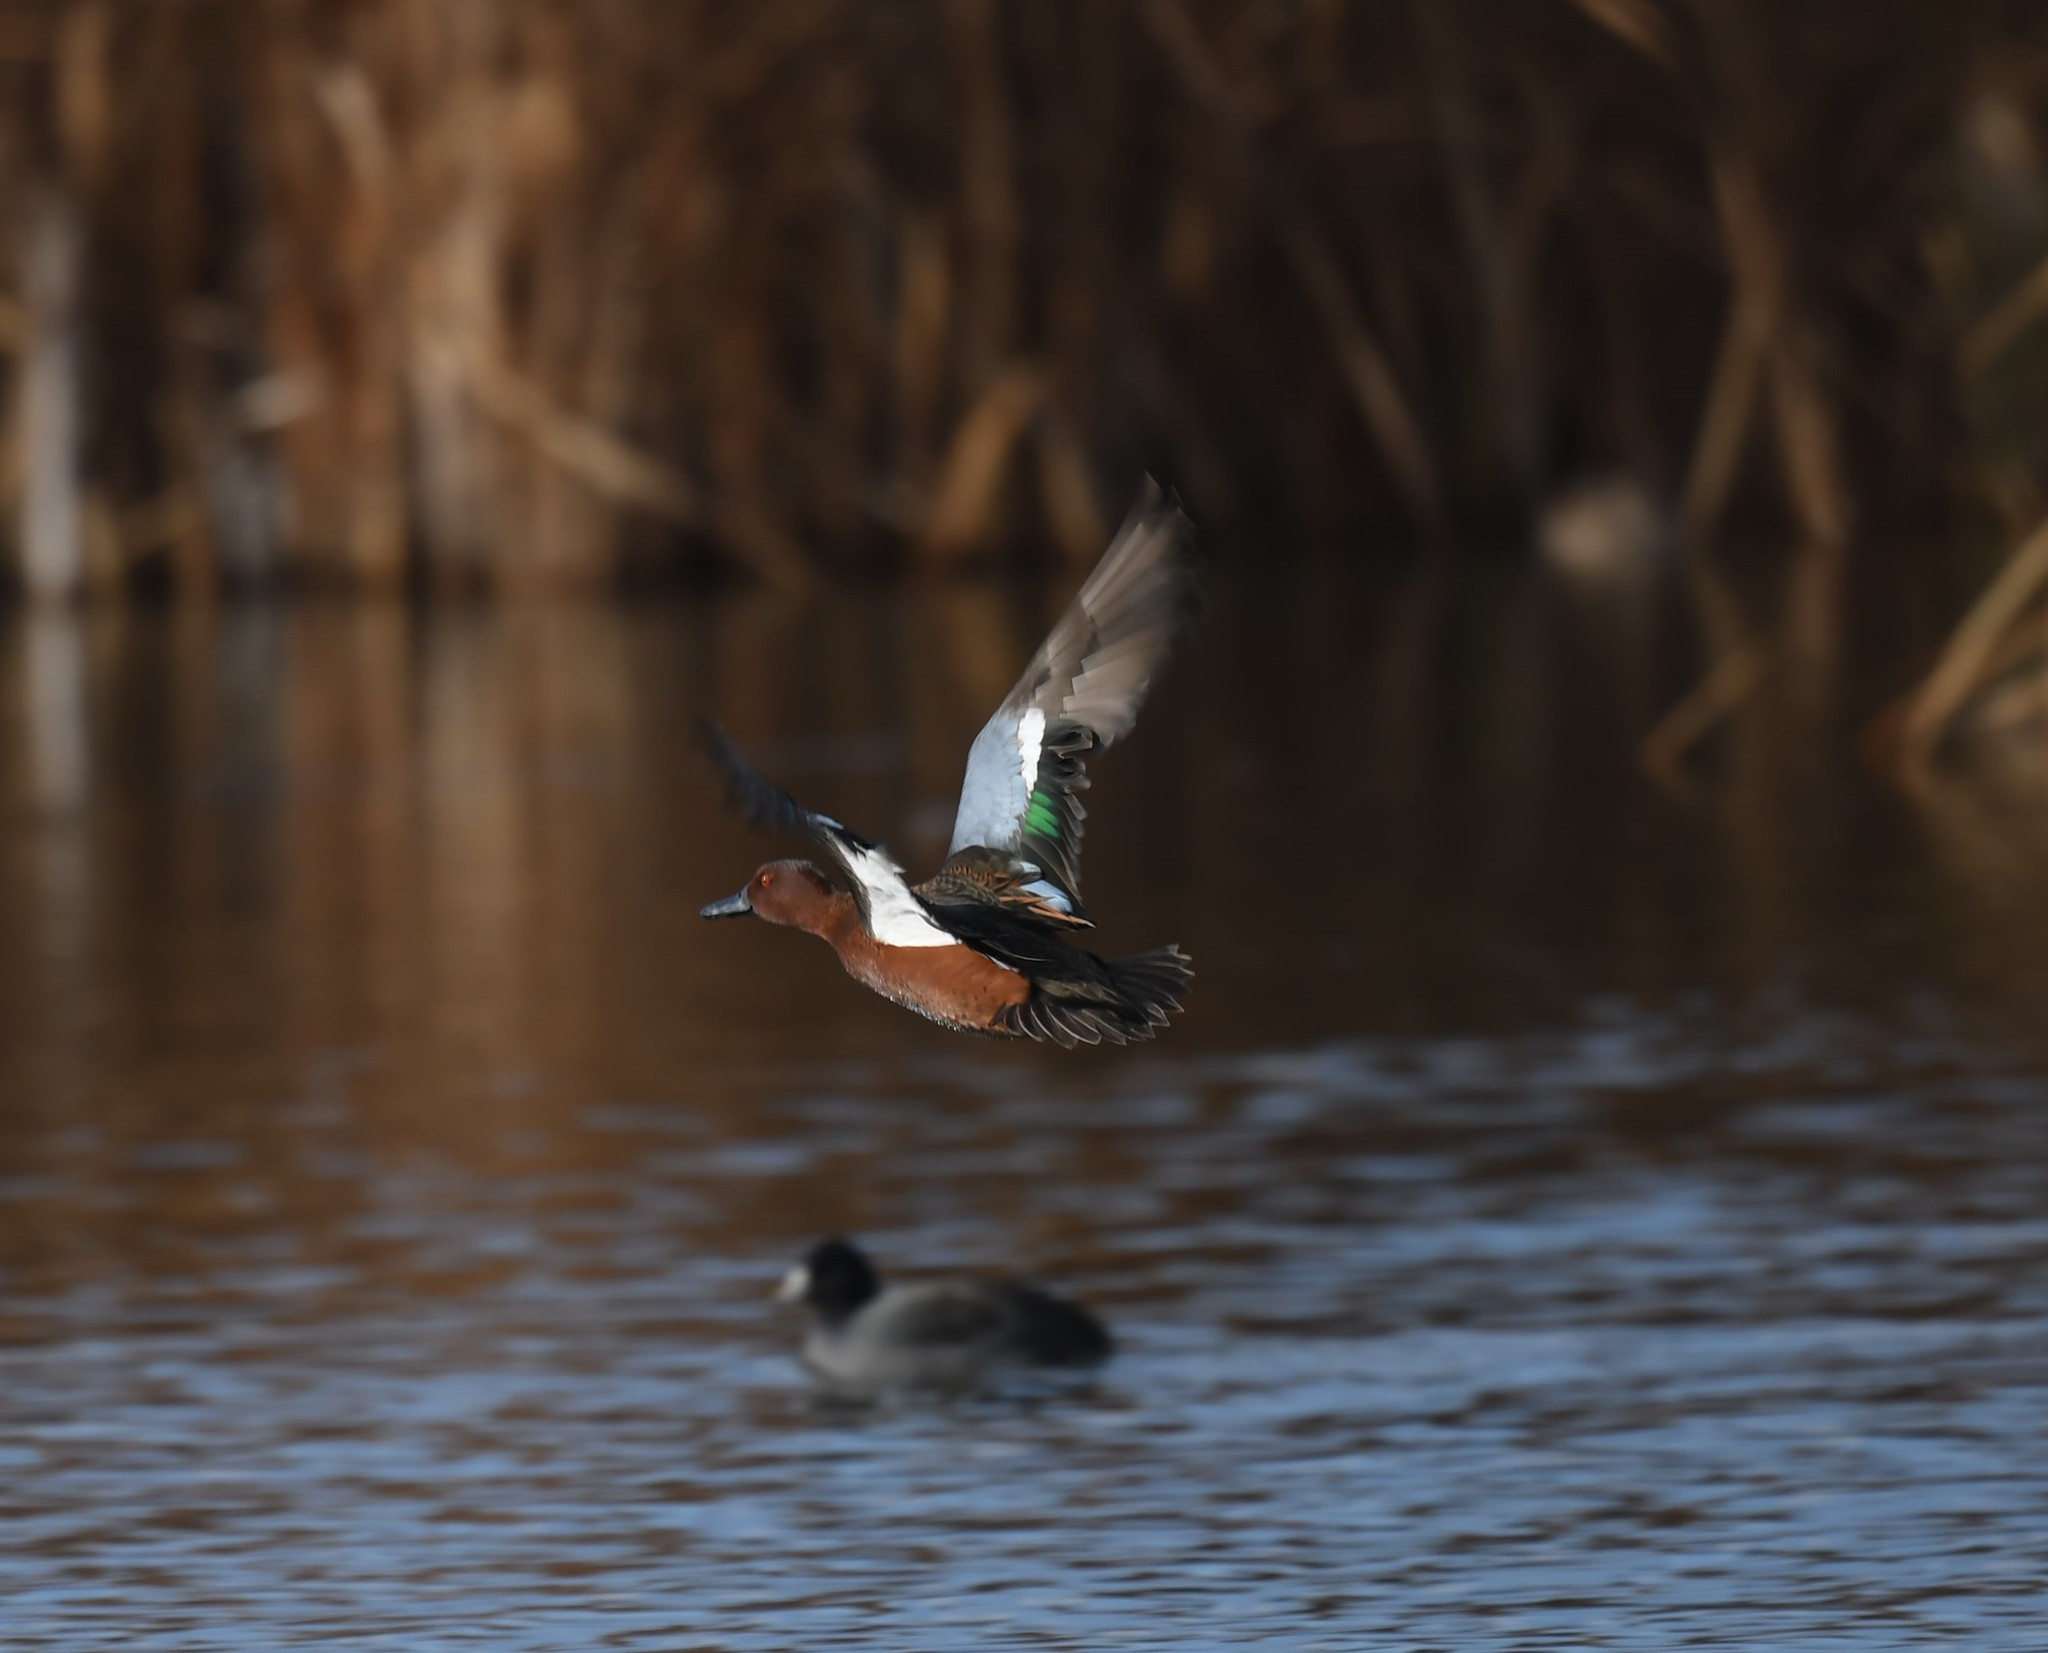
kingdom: Animalia
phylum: Chordata
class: Aves
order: Anseriformes
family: Anatidae
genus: Spatula
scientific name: Spatula cyanoptera
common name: Cinnamon teal
